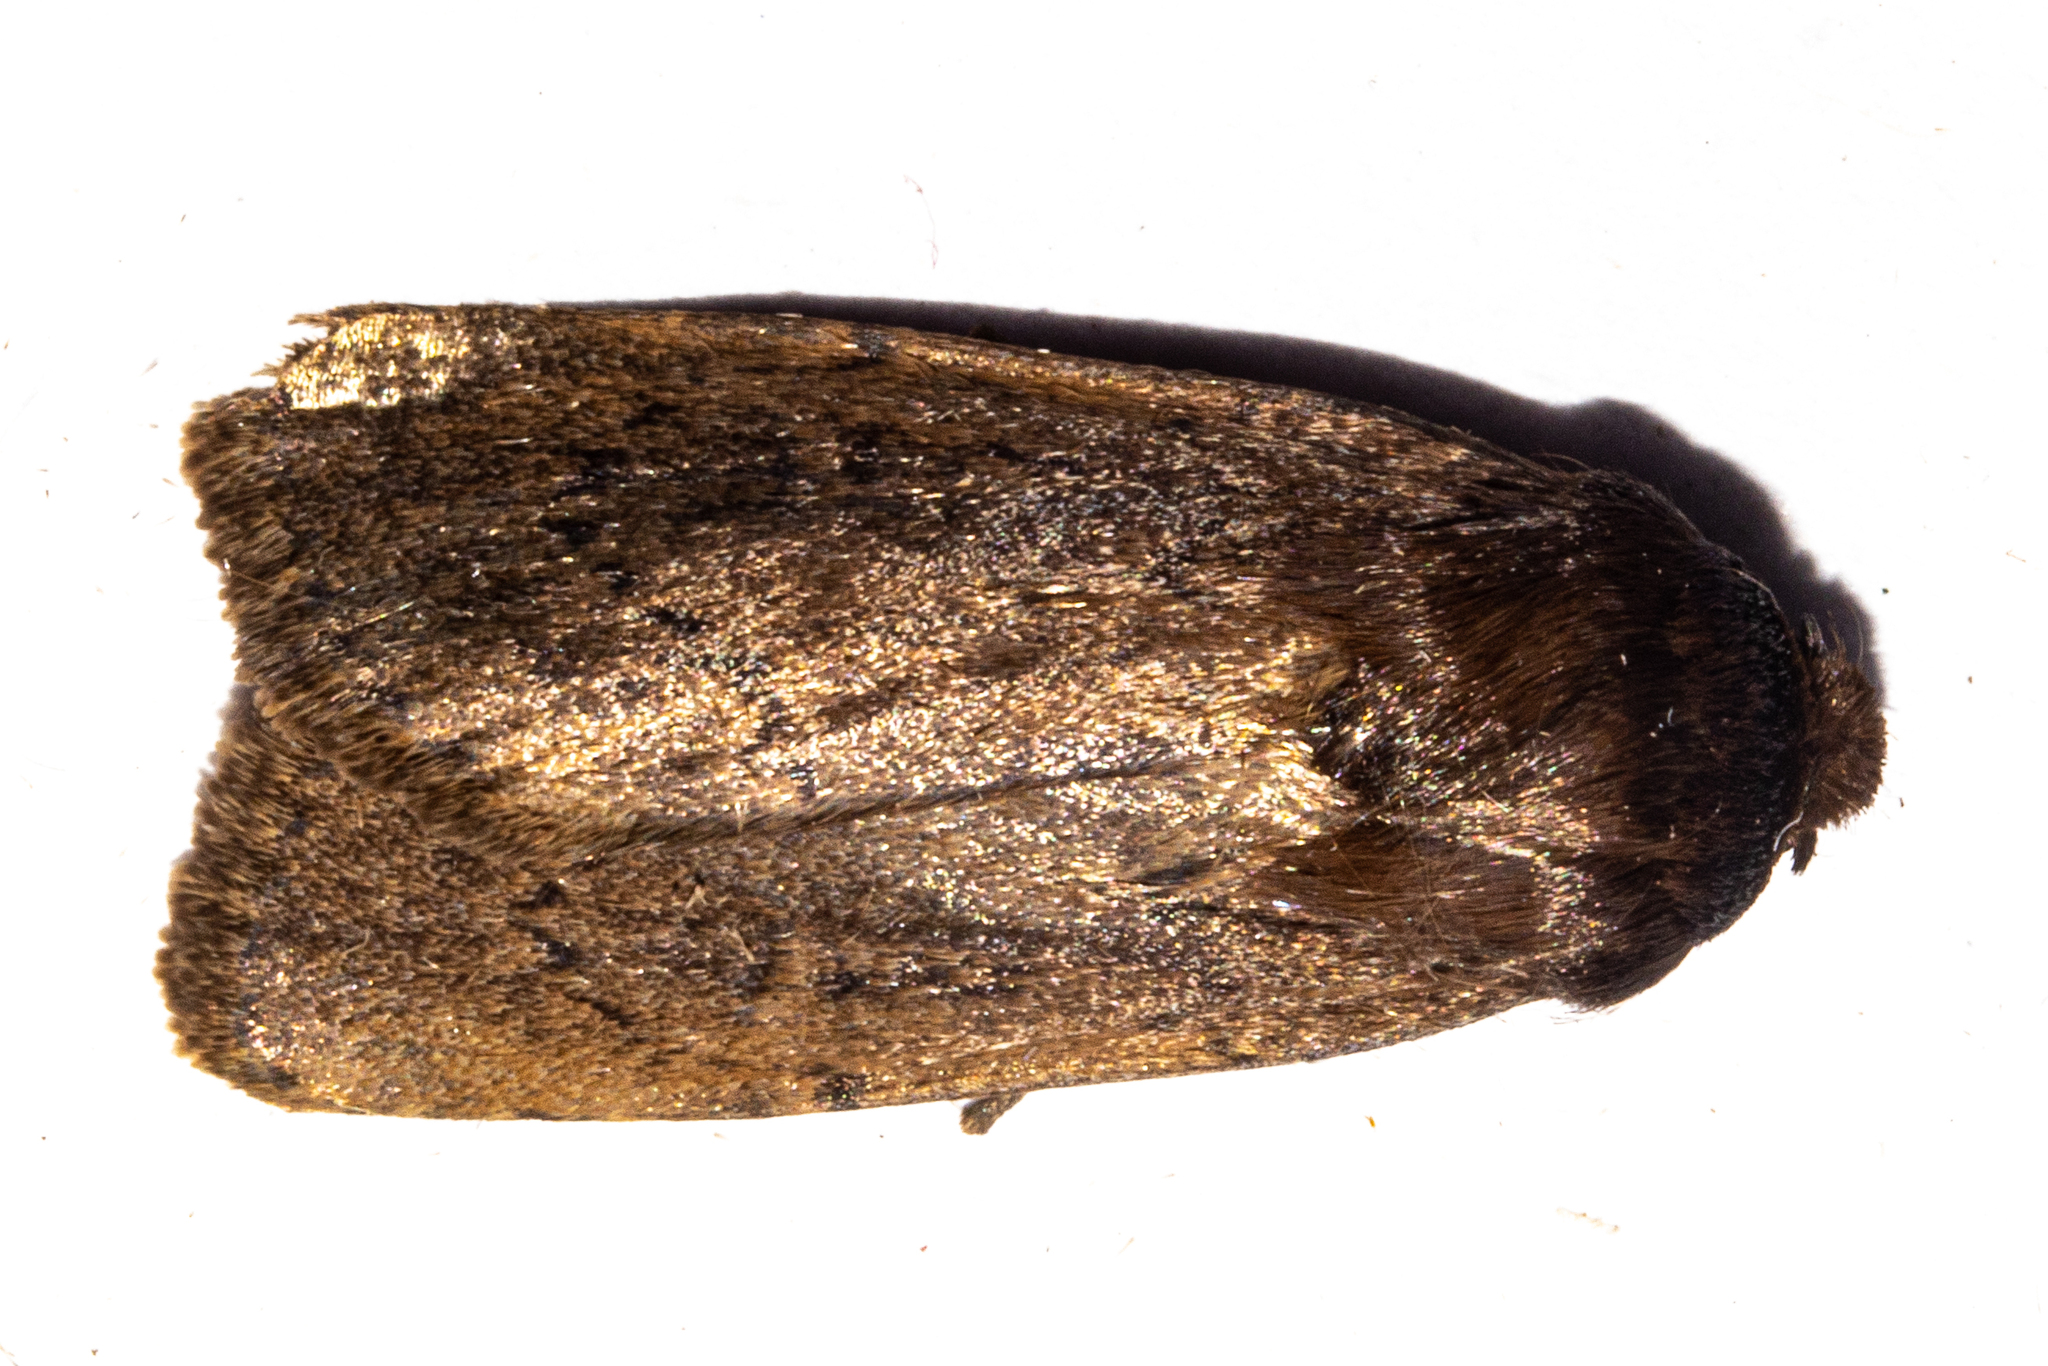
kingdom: Animalia
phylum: Arthropoda
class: Insecta
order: Lepidoptera
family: Noctuidae
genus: Bityla
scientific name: Bityla defigurata
